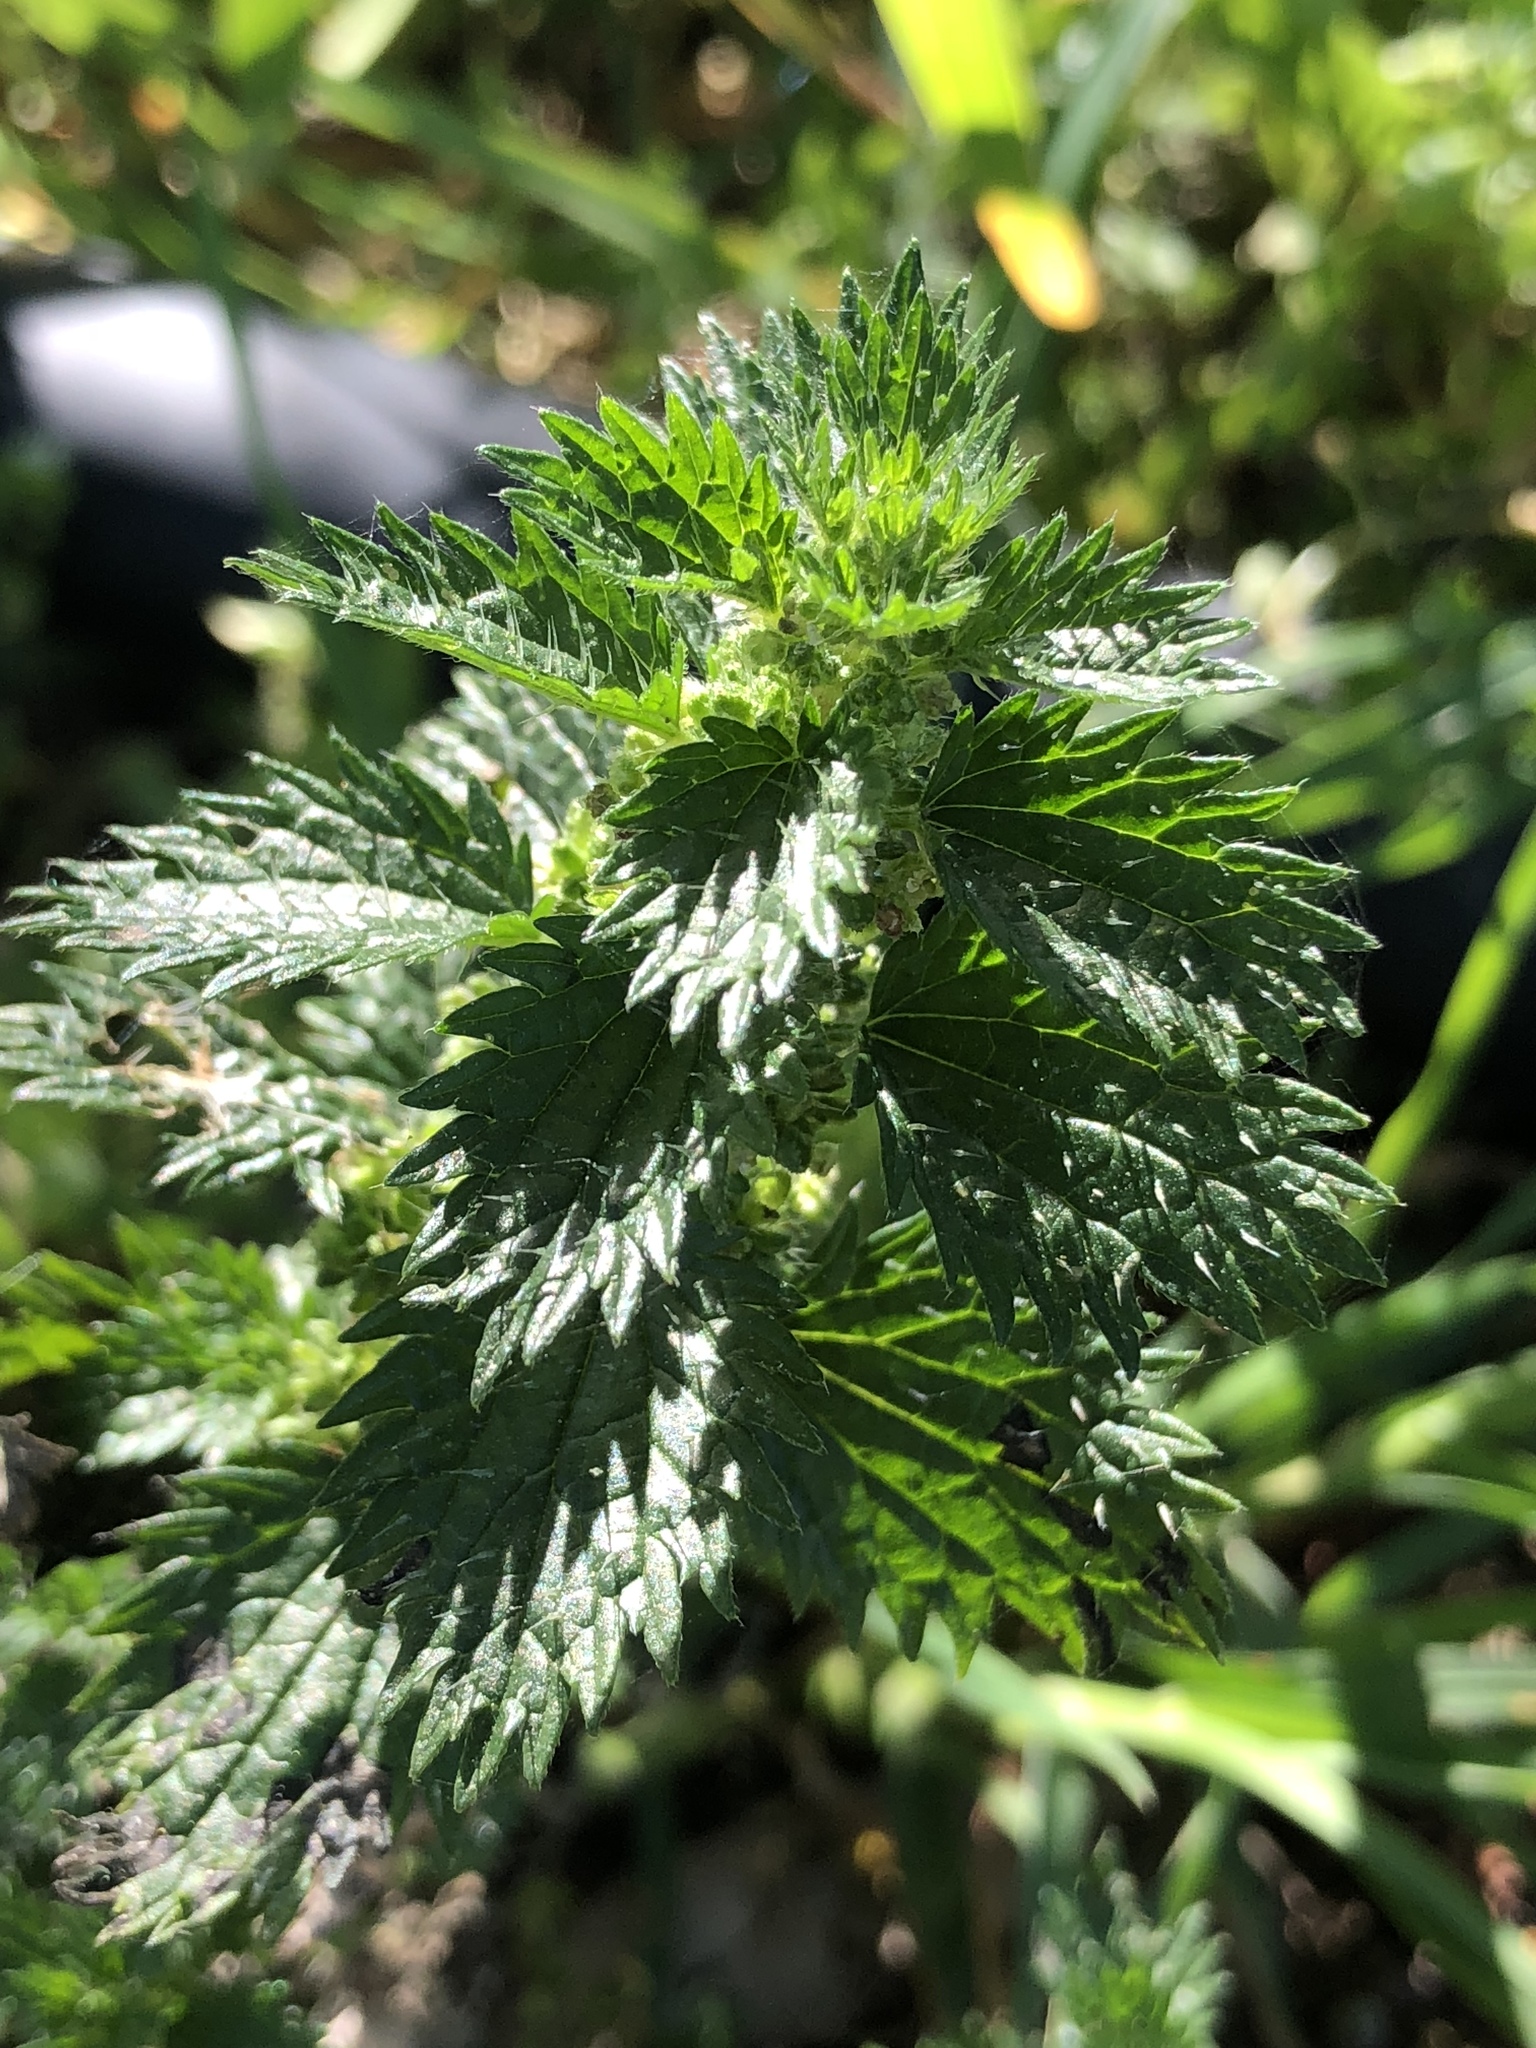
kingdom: Plantae
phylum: Tracheophyta
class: Magnoliopsida
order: Rosales
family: Urticaceae
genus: Urtica
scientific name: Urtica urens
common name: Dwarf nettle
